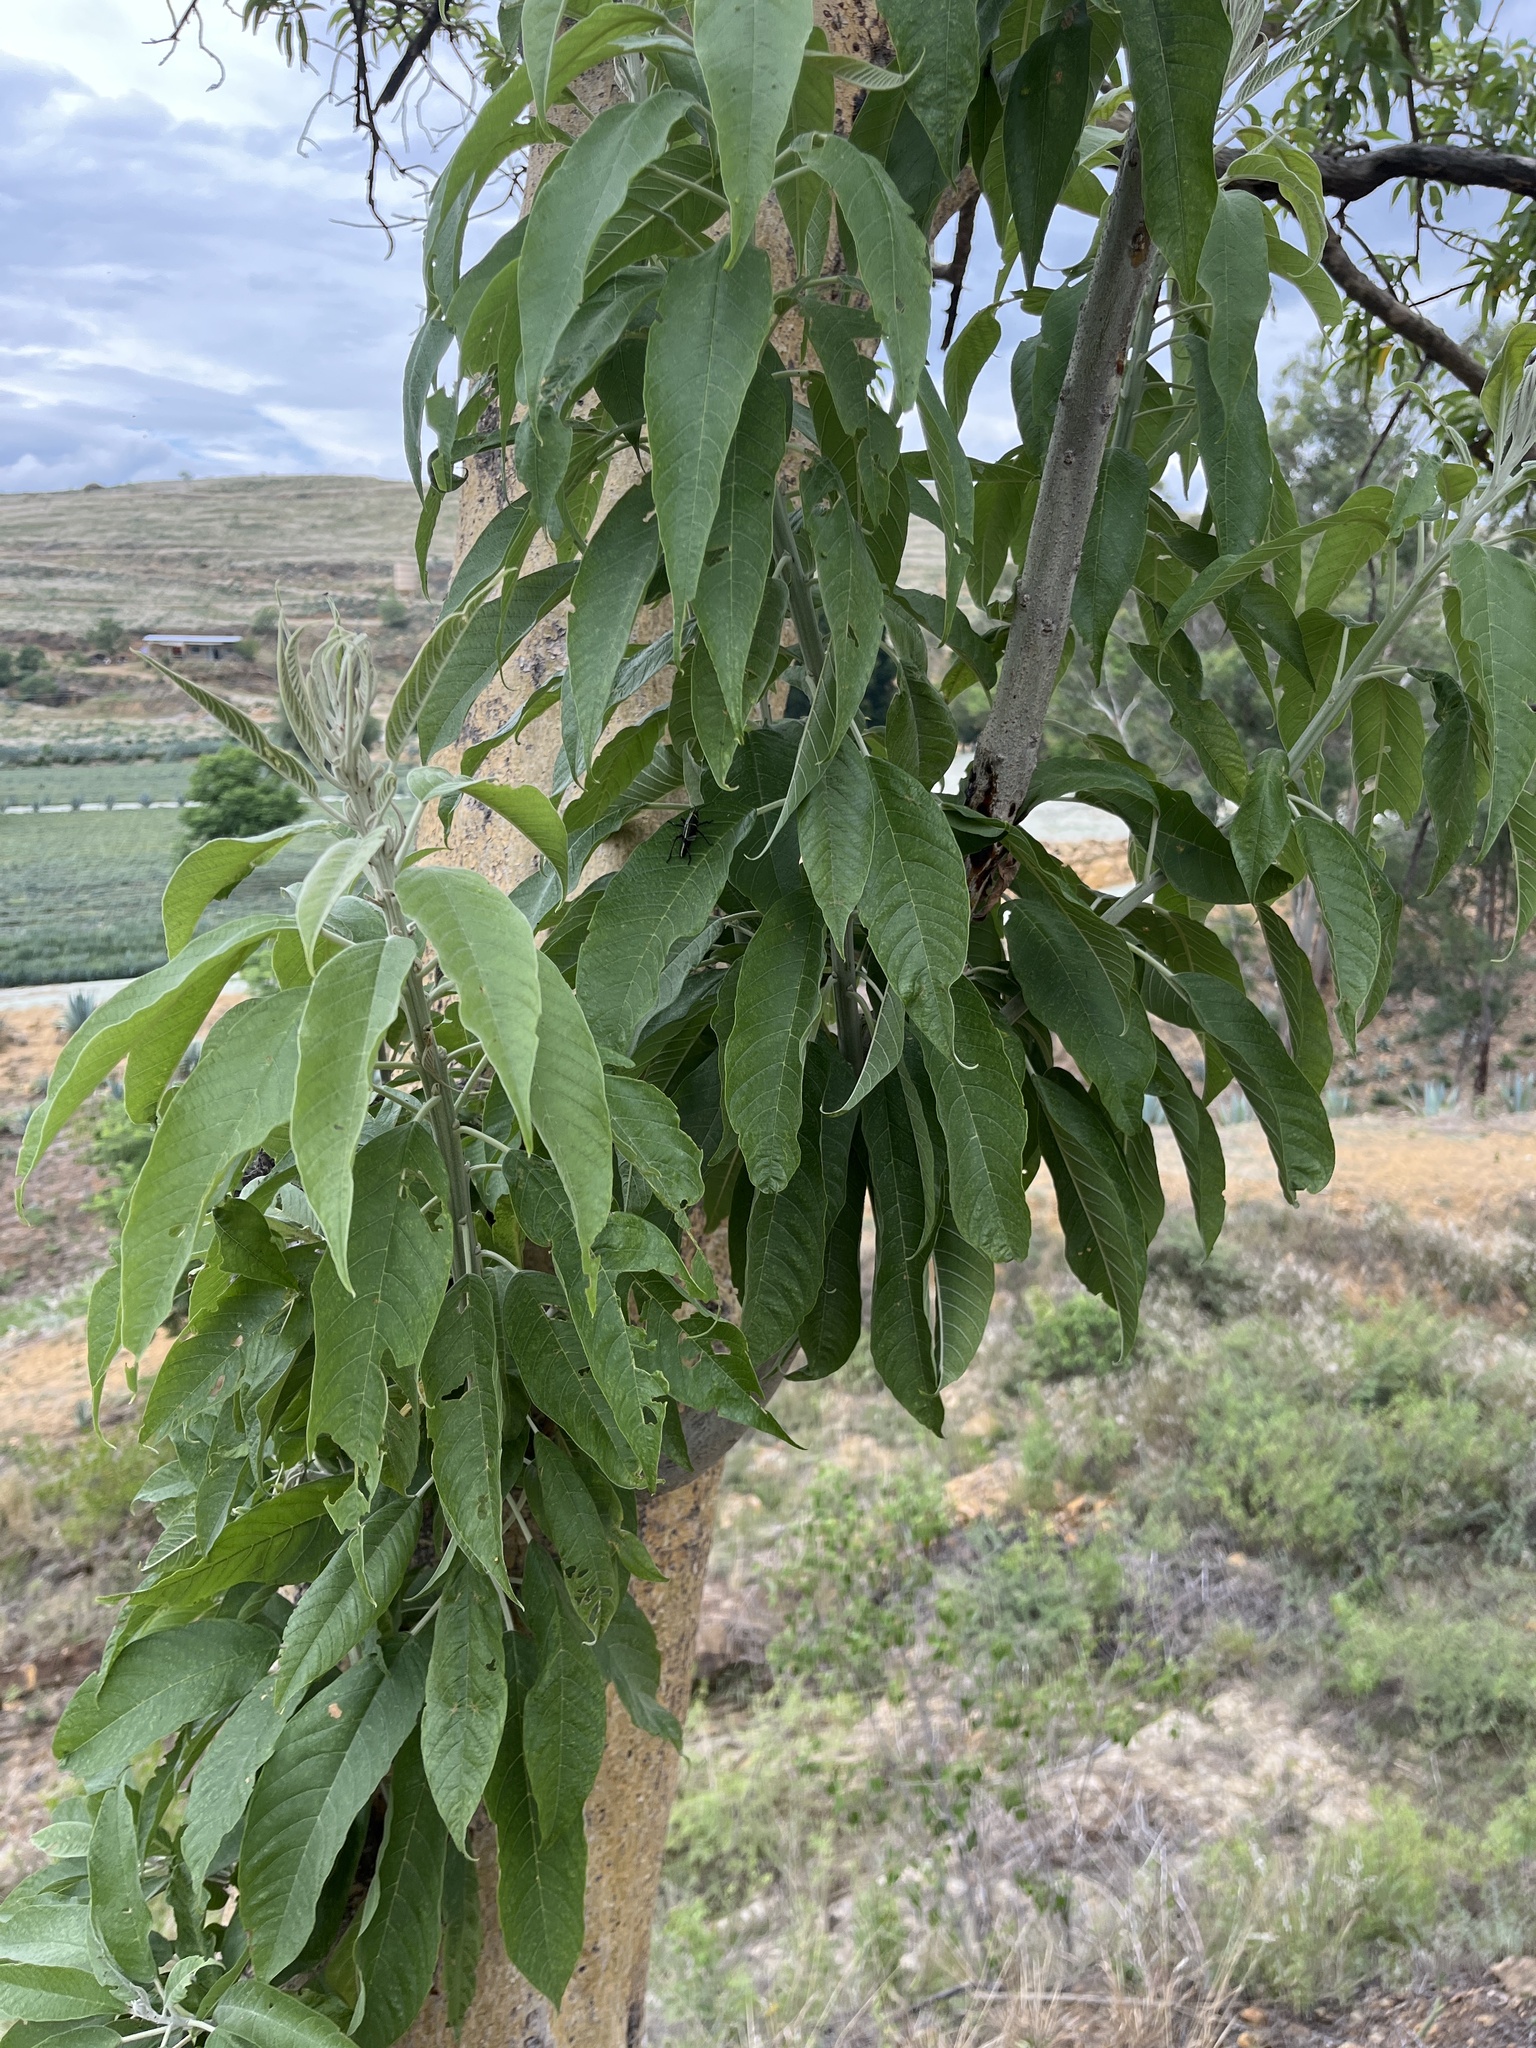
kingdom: Plantae
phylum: Tracheophyta
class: Magnoliopsida
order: Solanales
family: Convolvulaceae
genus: Ipomoea
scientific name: Ipomoea murucoides
